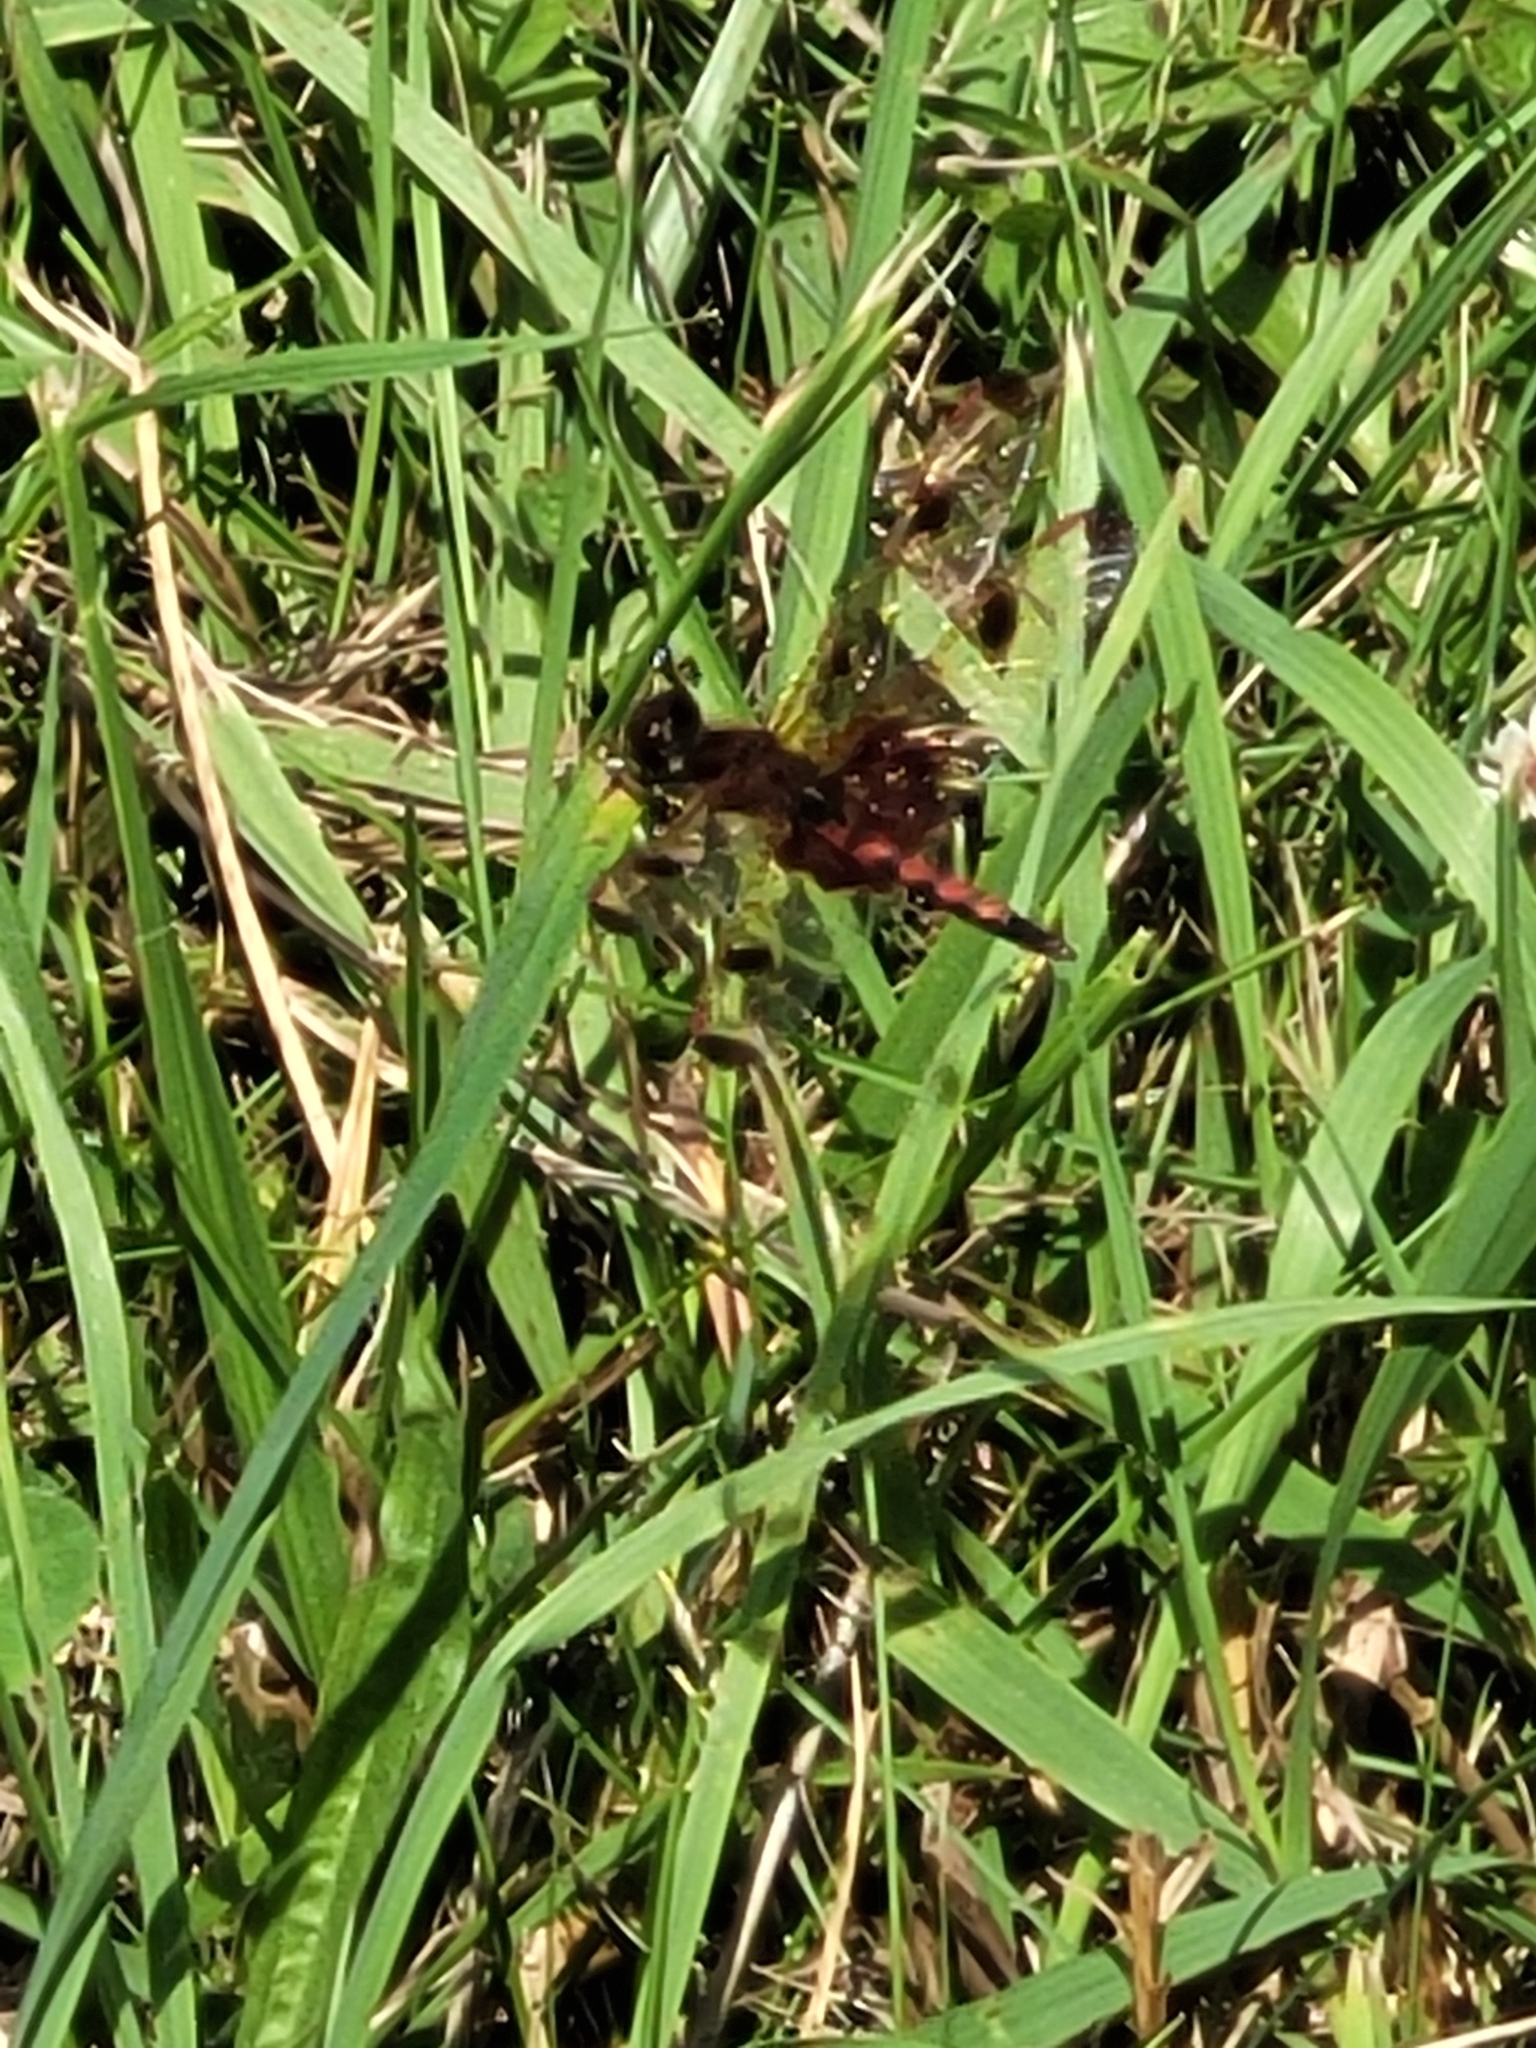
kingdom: Animalia
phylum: Arthropoda
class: Insecta
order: Odonata
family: Libellulidae
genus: Celithemis
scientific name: Celithemis elisa
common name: Calico pennant
